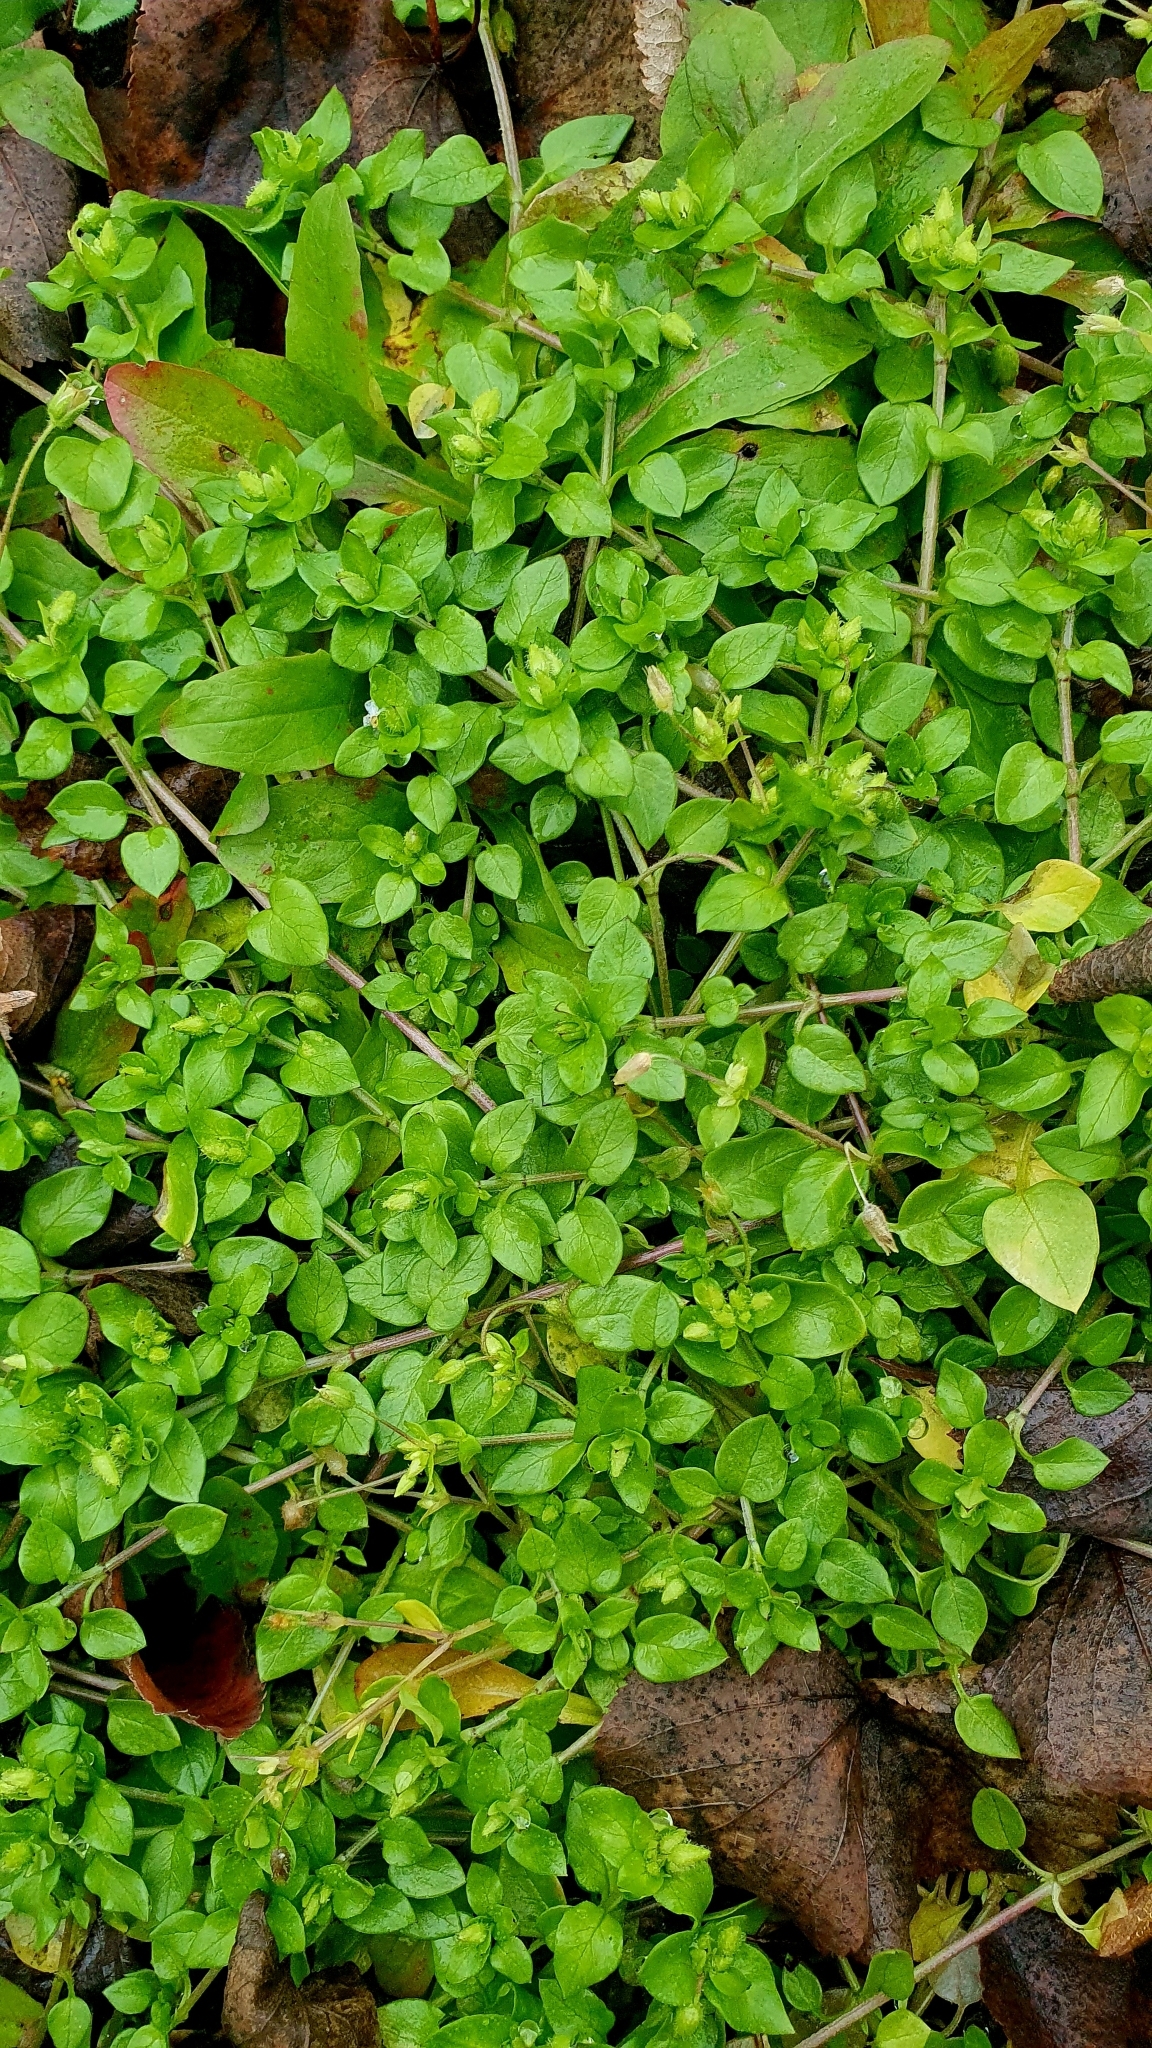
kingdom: Plantae
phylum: Tracheophyta
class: Magnoliopsida
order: Caryophyllales
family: Caryophyllaceae
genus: Stellaria
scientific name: Stellaria media
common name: Common chickweed
